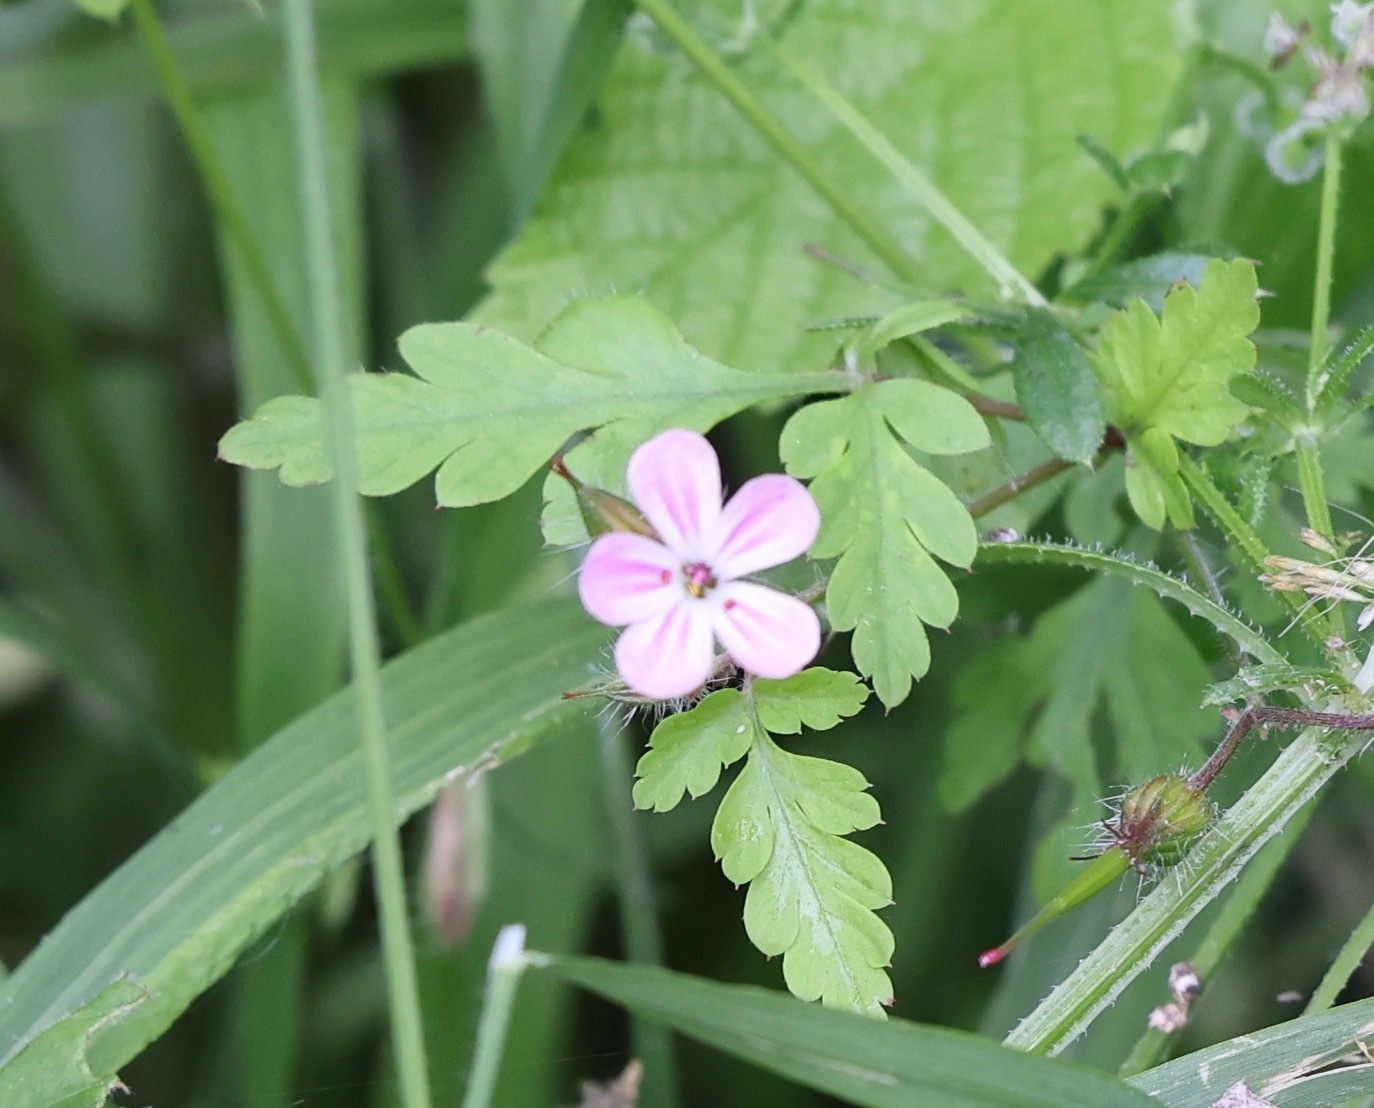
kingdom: Plantae
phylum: Tracheophyta
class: Magnoliopsida
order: Geraniales
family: Geraniaceae
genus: Geranium
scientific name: Geranium robertianum
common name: Herb-robert
